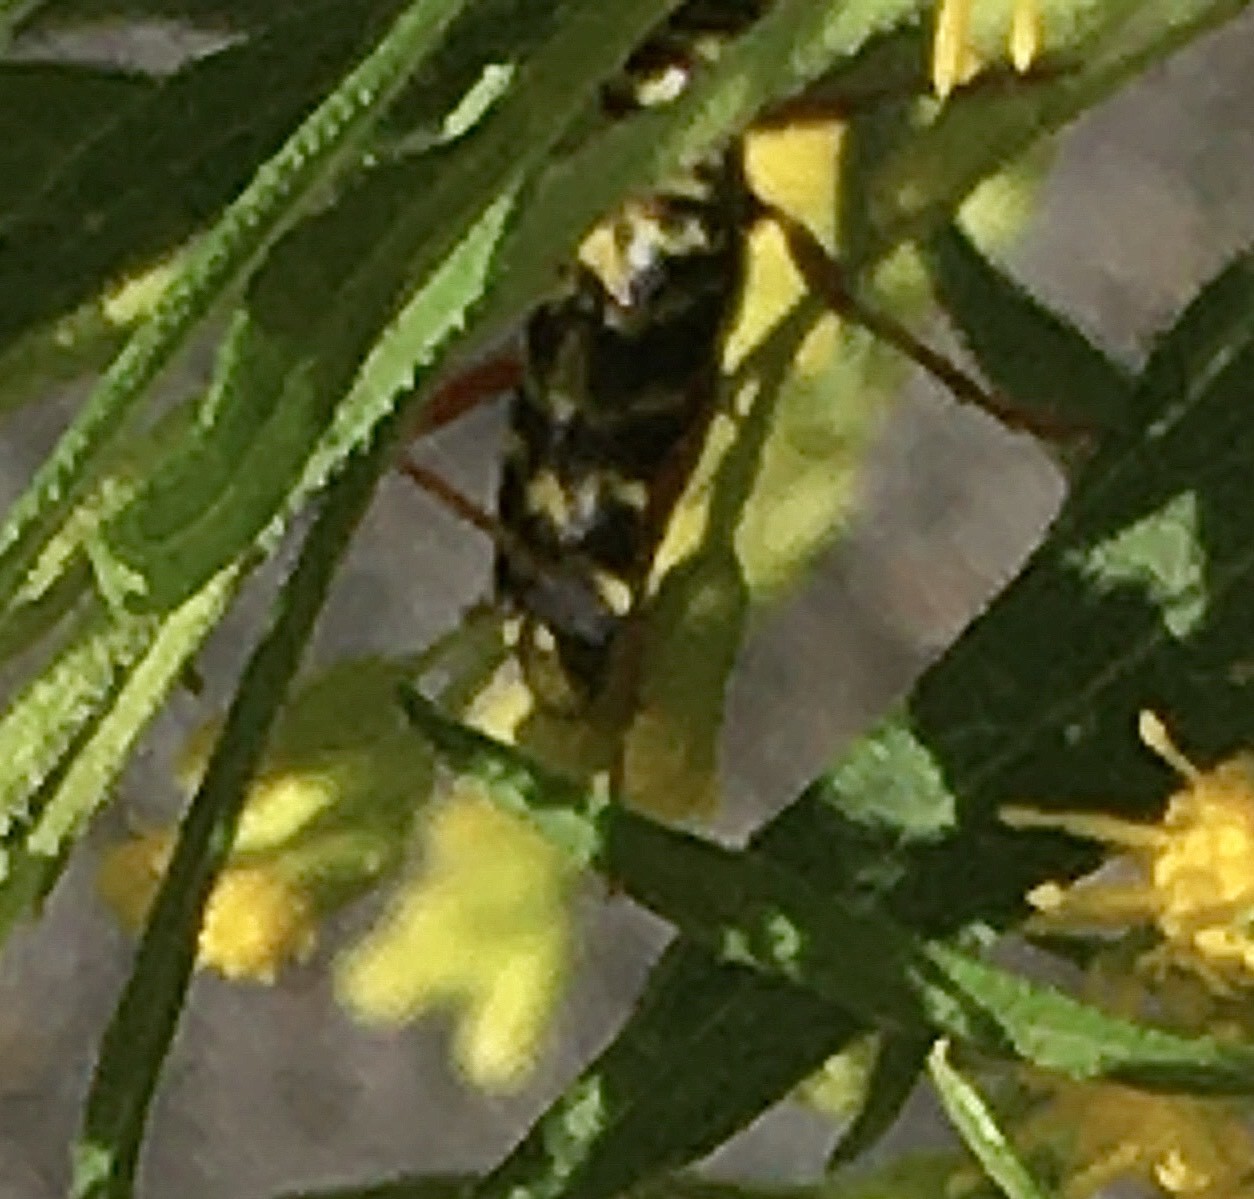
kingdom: Animalia
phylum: Arthropoda
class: Insecta
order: Coleoptera
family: Cerambycidae
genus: Megacyllene
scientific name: Megacyllene robiniae
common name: Locust borer
